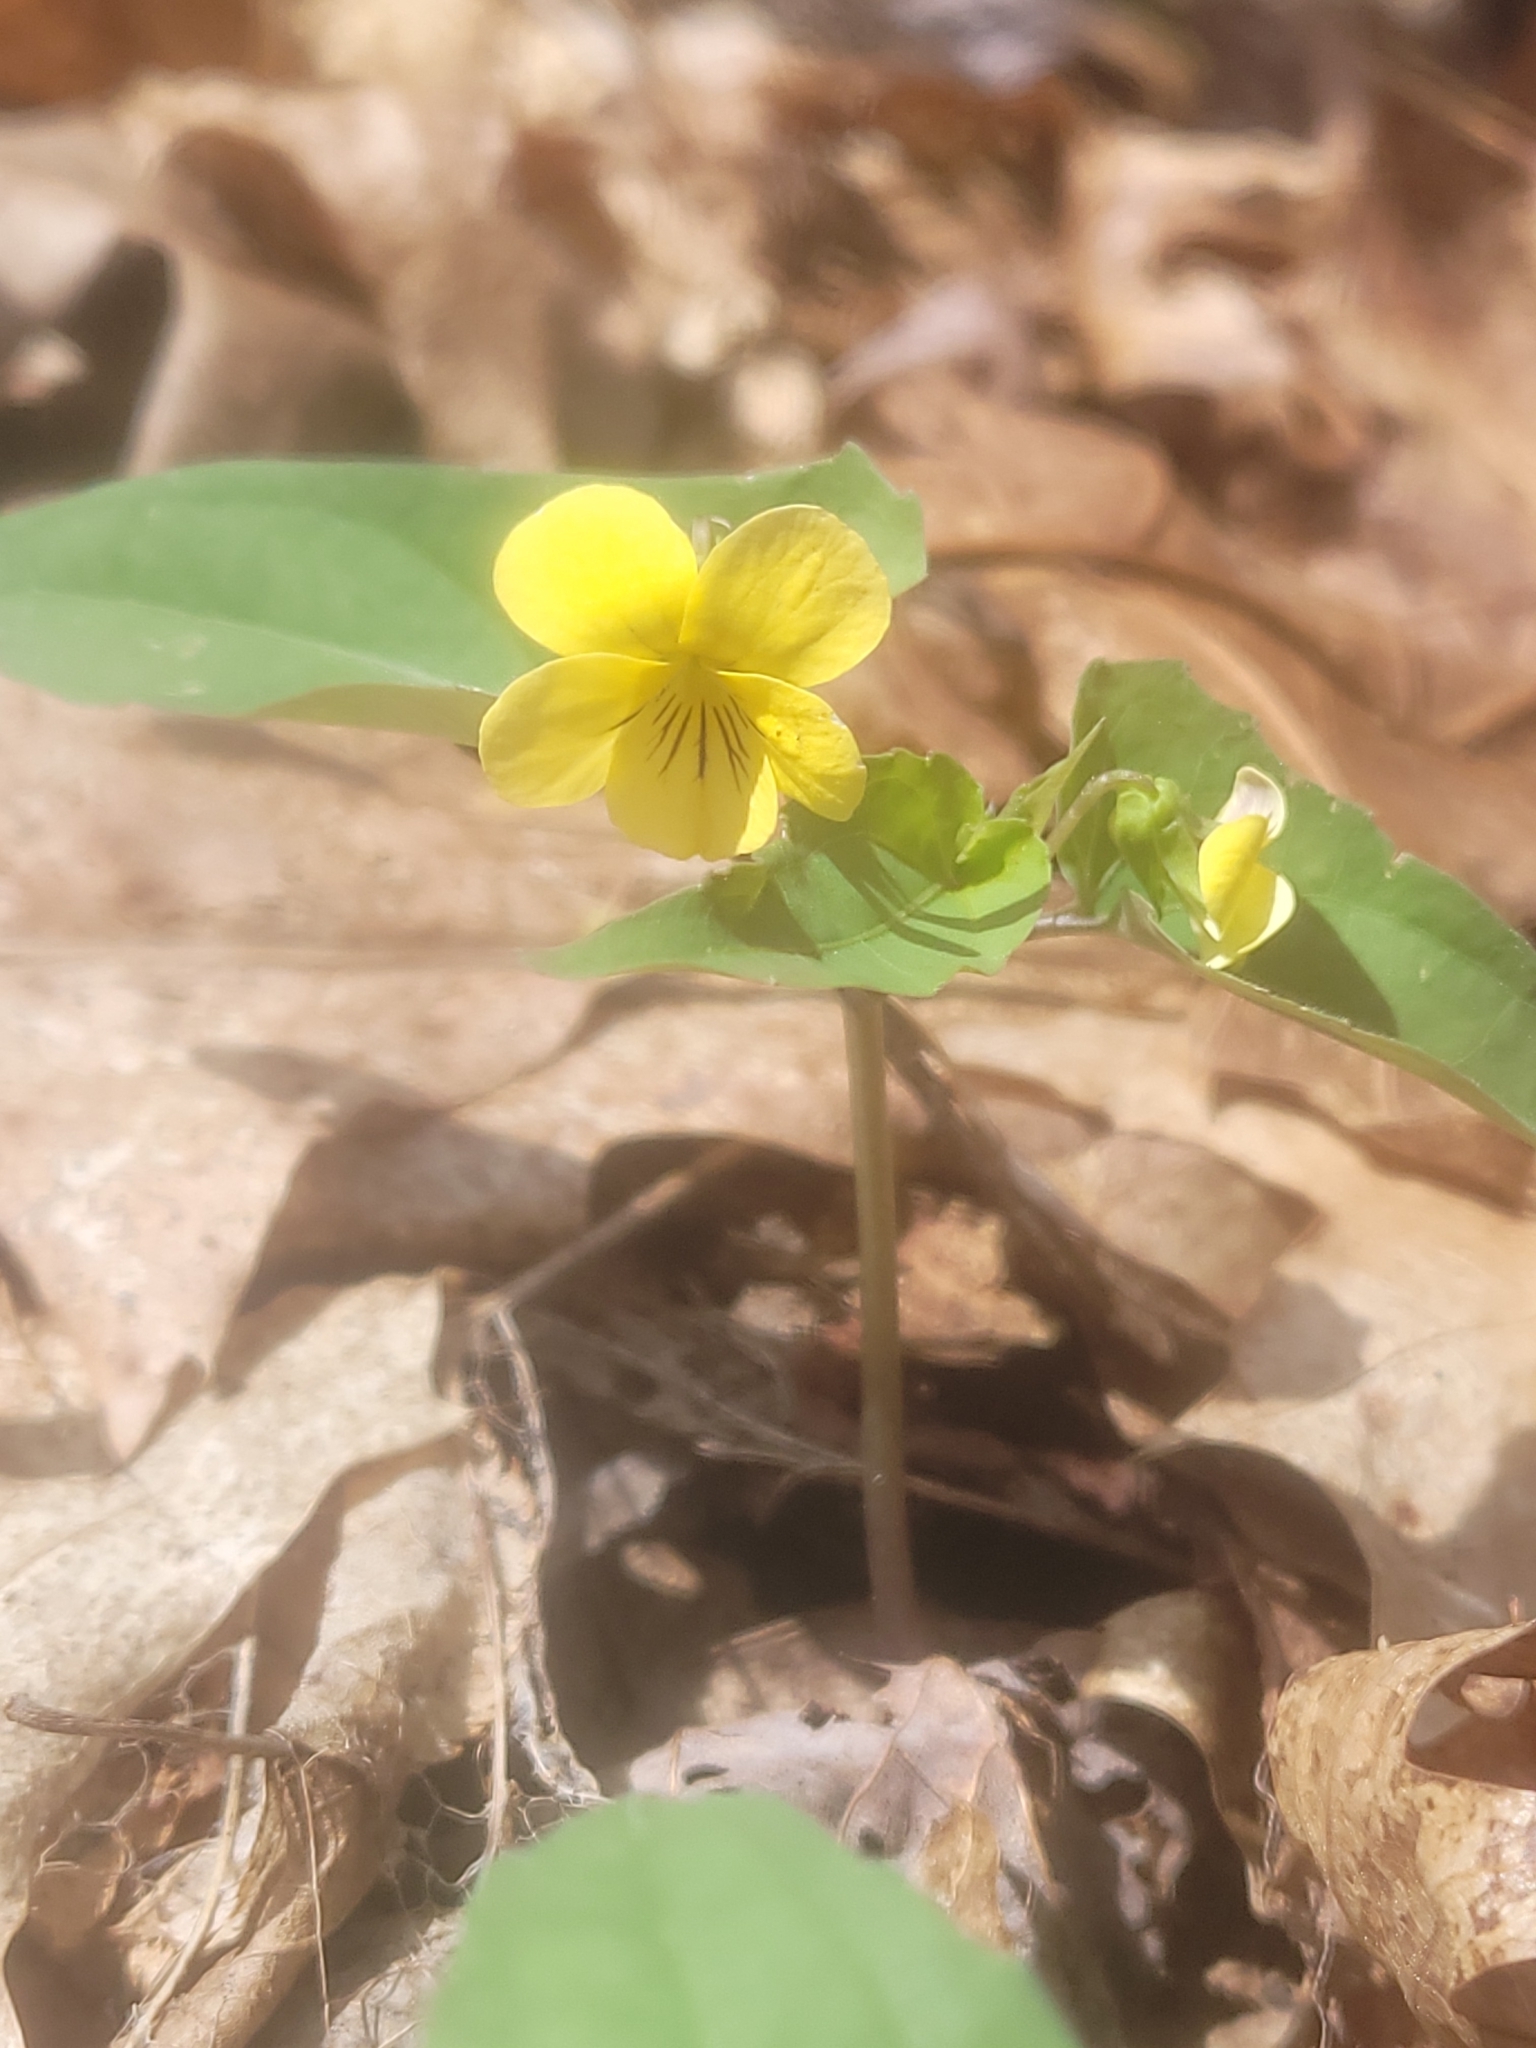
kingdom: Plantae
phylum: Tracheophyta
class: Magnoliopsida
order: Malpighiales
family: Violaceae
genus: Viola
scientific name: Viola hastata
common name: Spear-leaf violet
